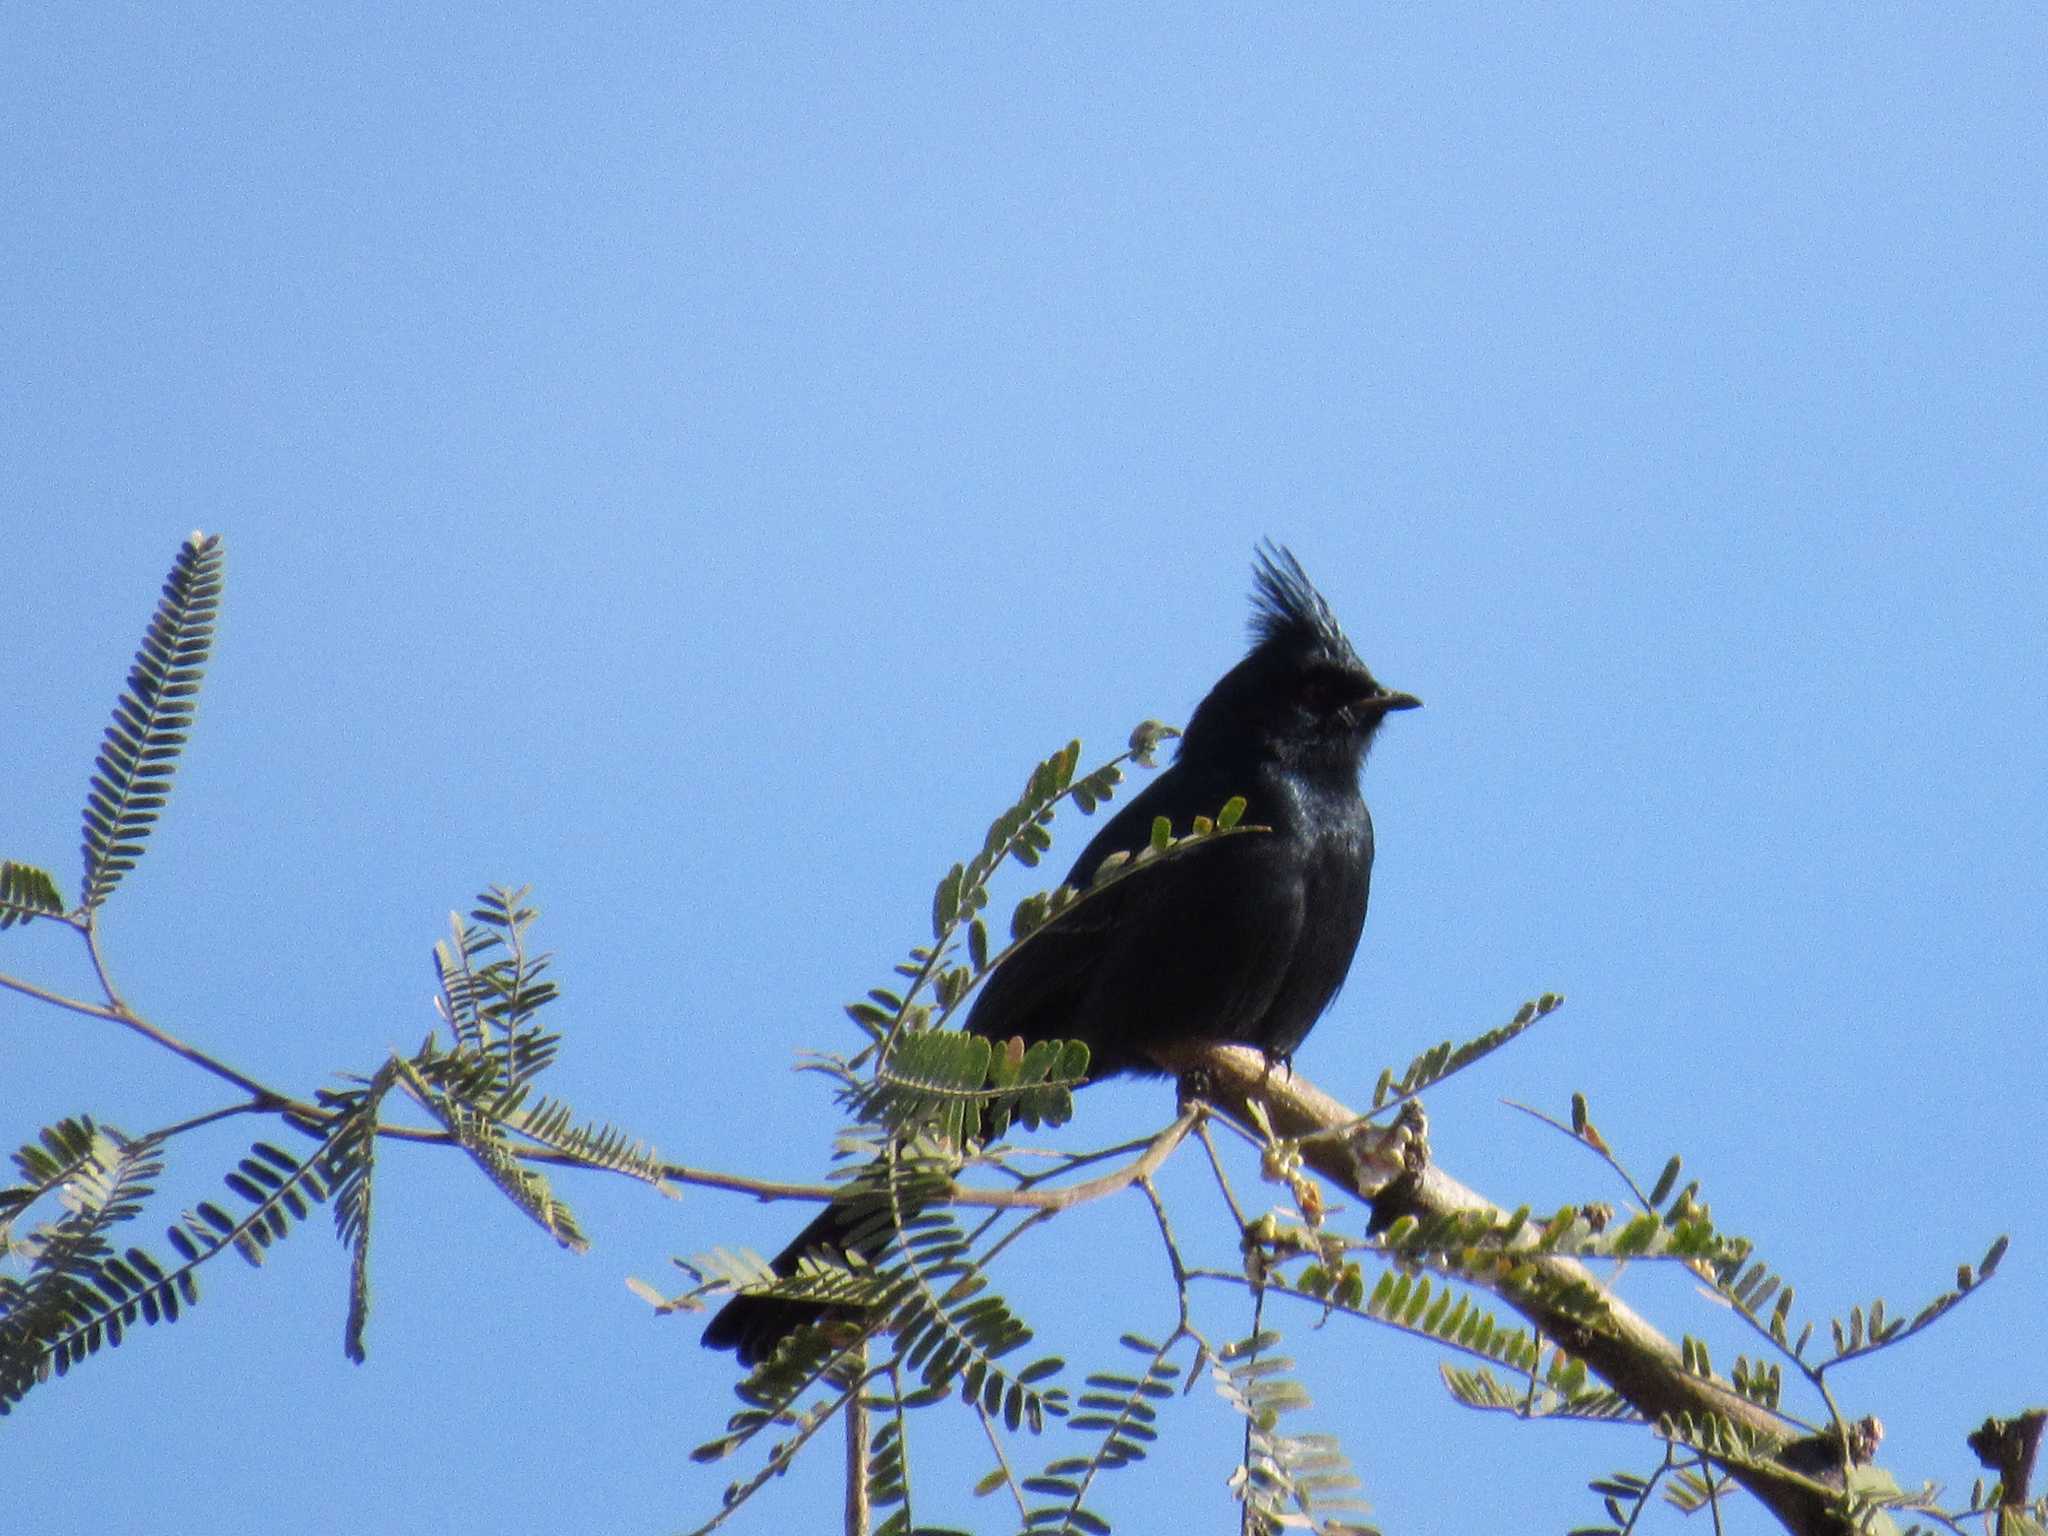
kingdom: Animalia
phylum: Chordata
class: Aves
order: Passeriformes
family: Ptilogonatidae
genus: Phainopepla
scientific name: Phainopepla nitens
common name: Phainopepla
